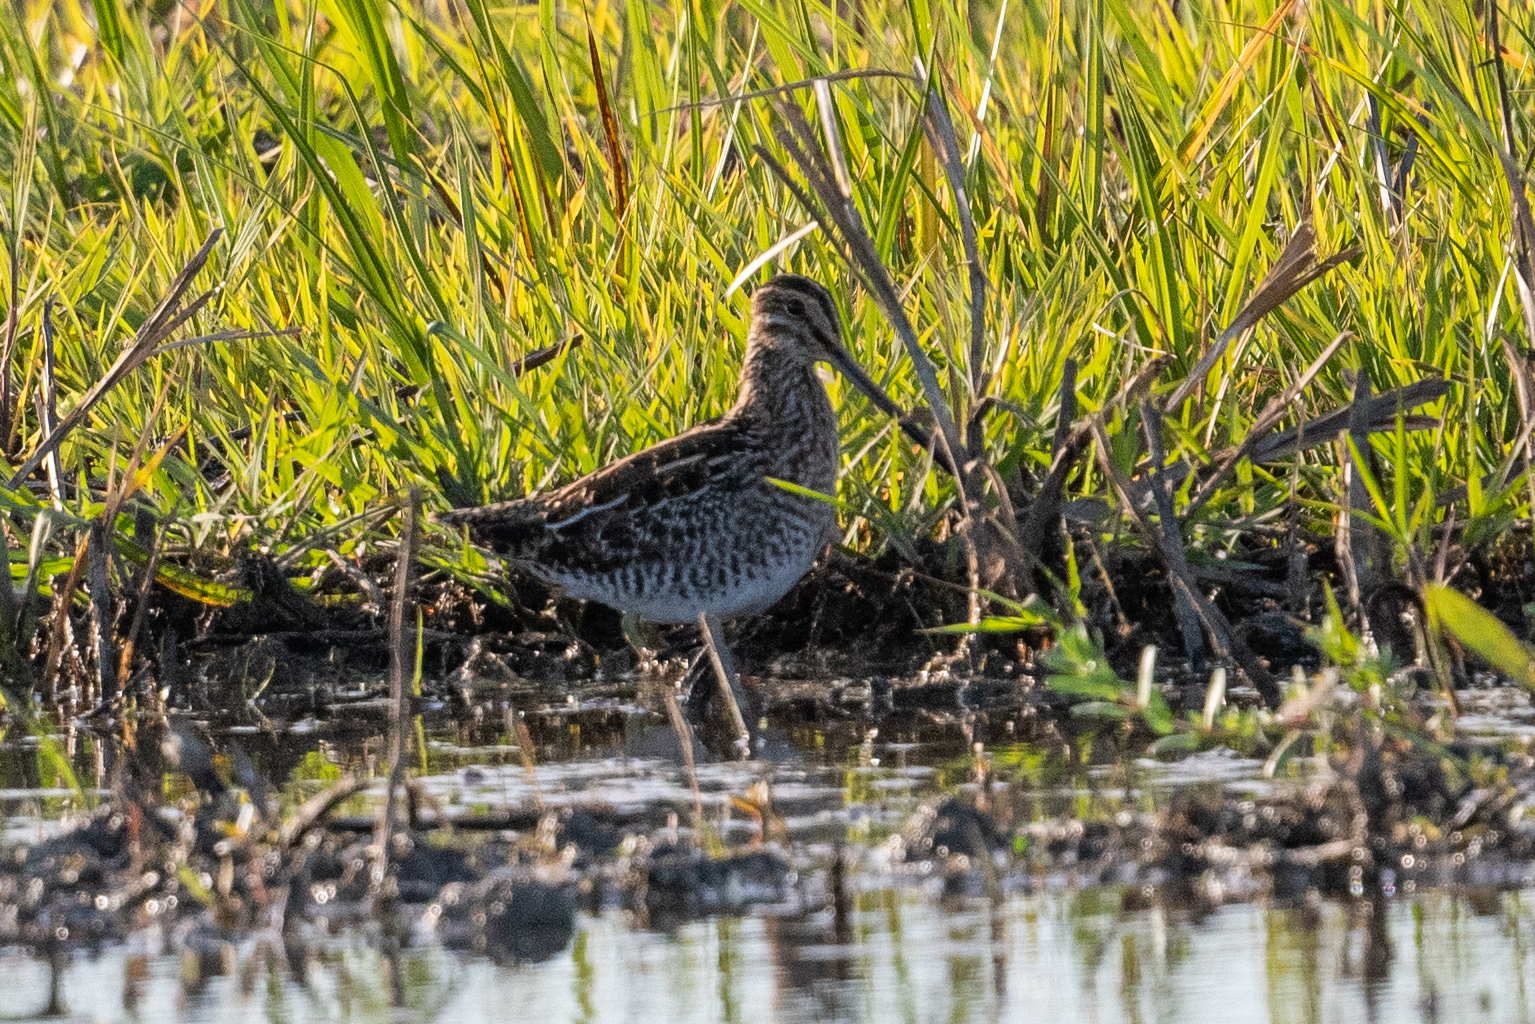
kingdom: Animalia
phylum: Chordata
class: Aves
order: Charadriiformes
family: Scolopacidae
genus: Gallinago
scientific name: Gallinago delicata
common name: Wilson's snipe
